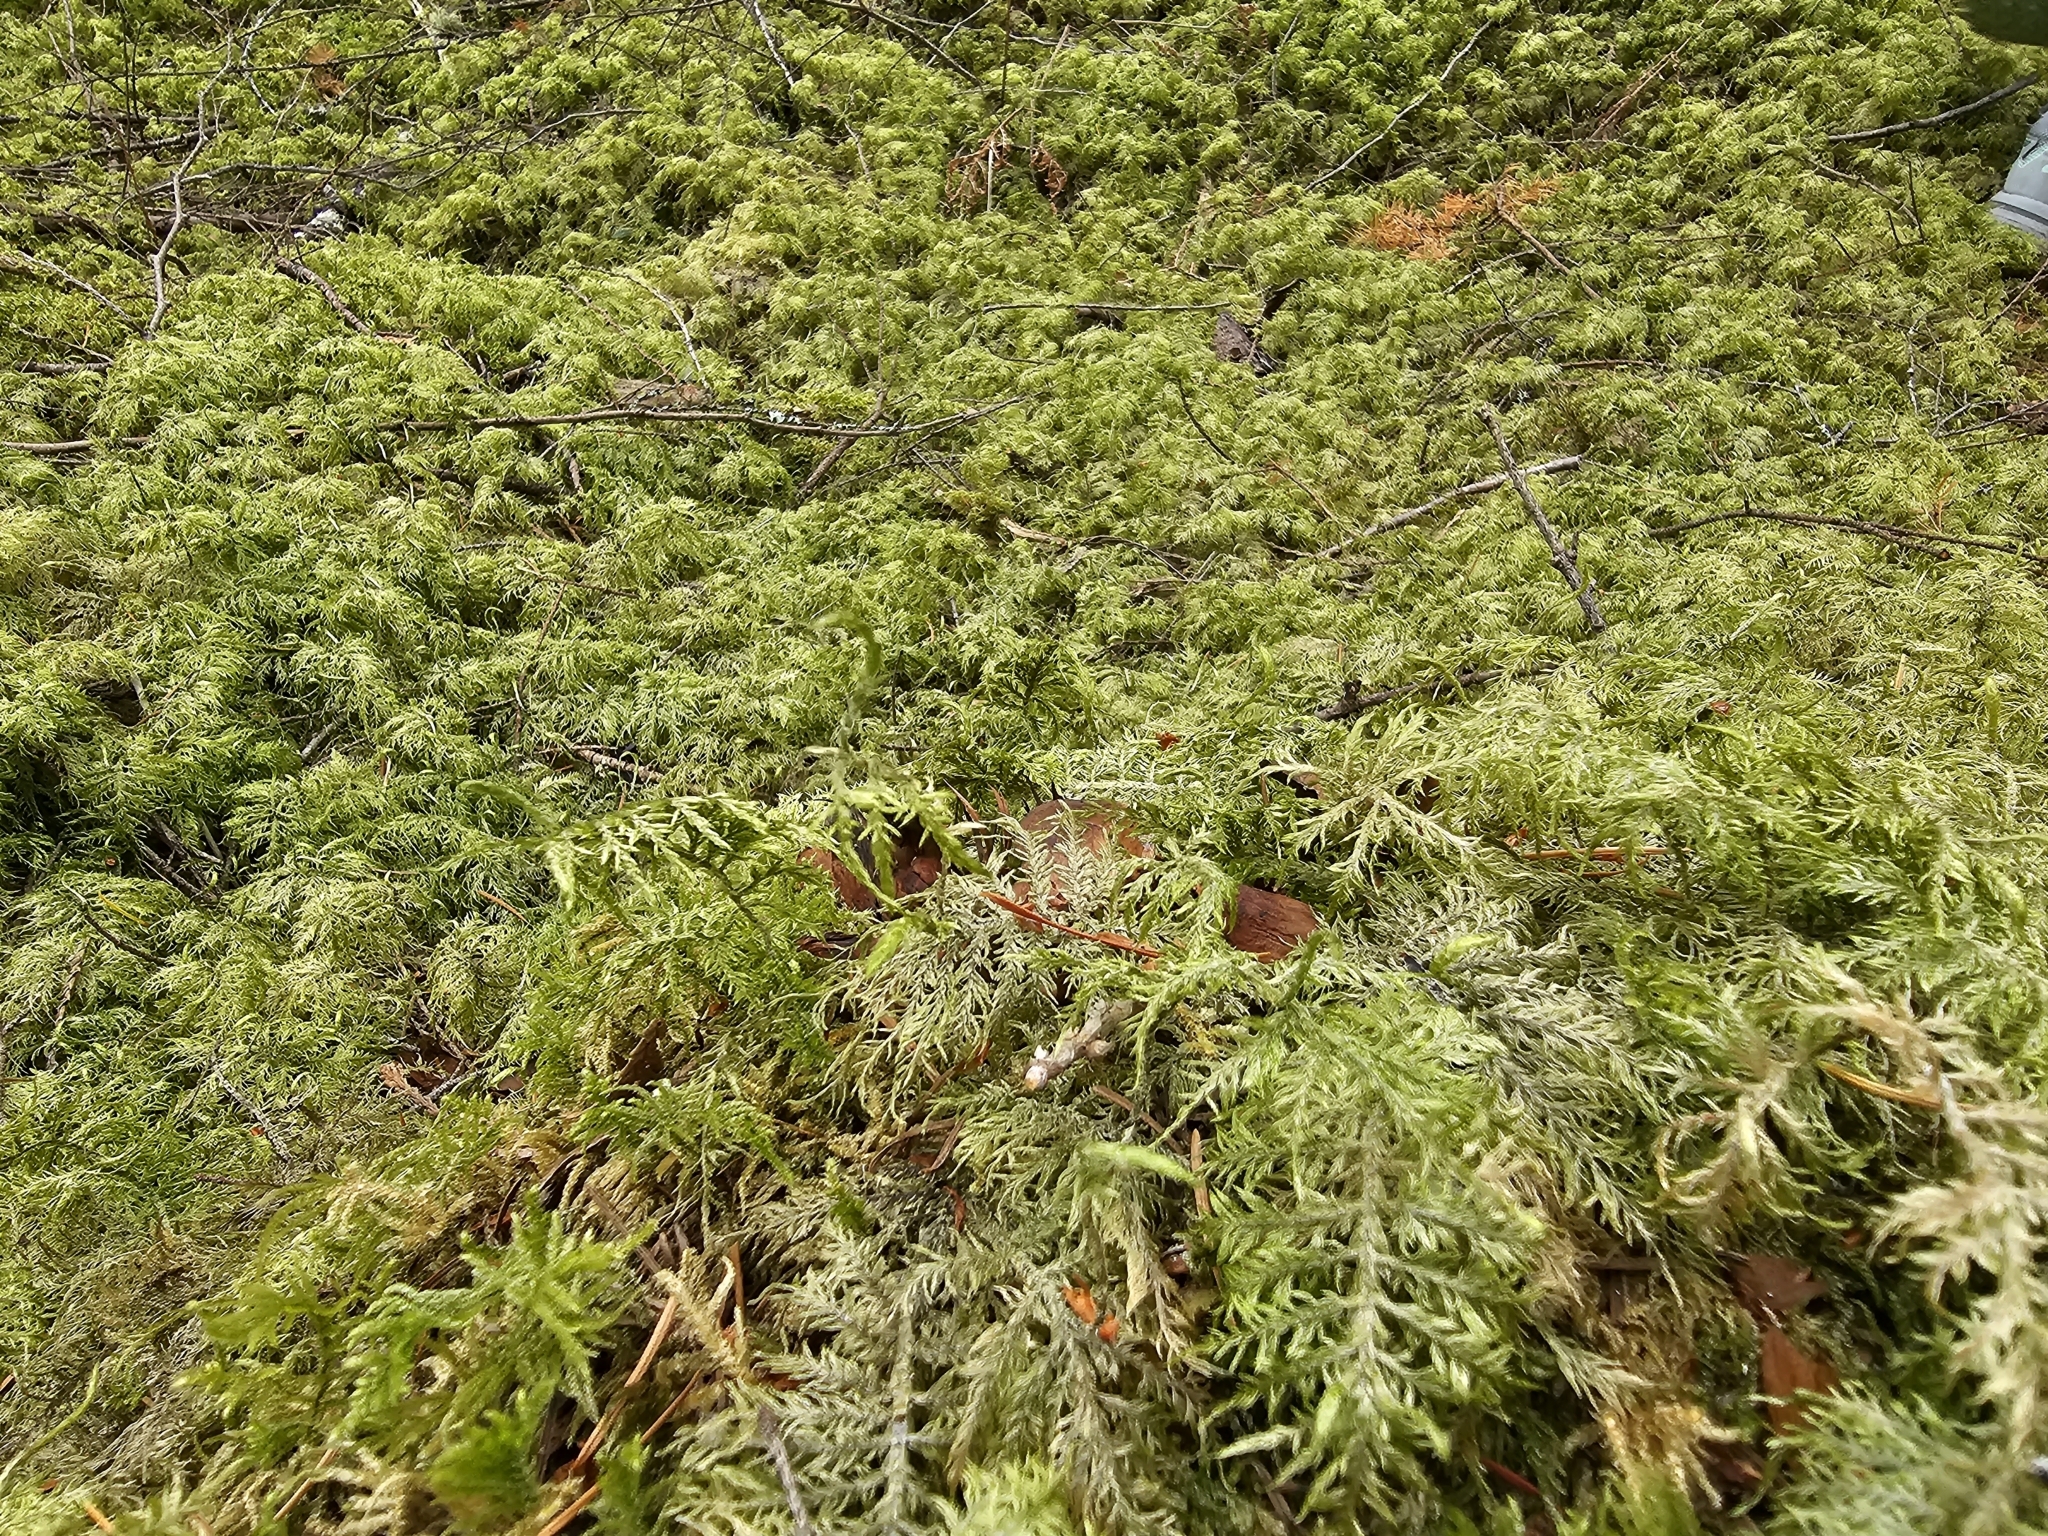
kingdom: Plantae
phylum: Bryophyta
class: Bryopsida
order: Hypnales
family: Hylocomiaceae
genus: Hylocomium
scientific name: Hylocomium splendens
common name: Stairstep moss
